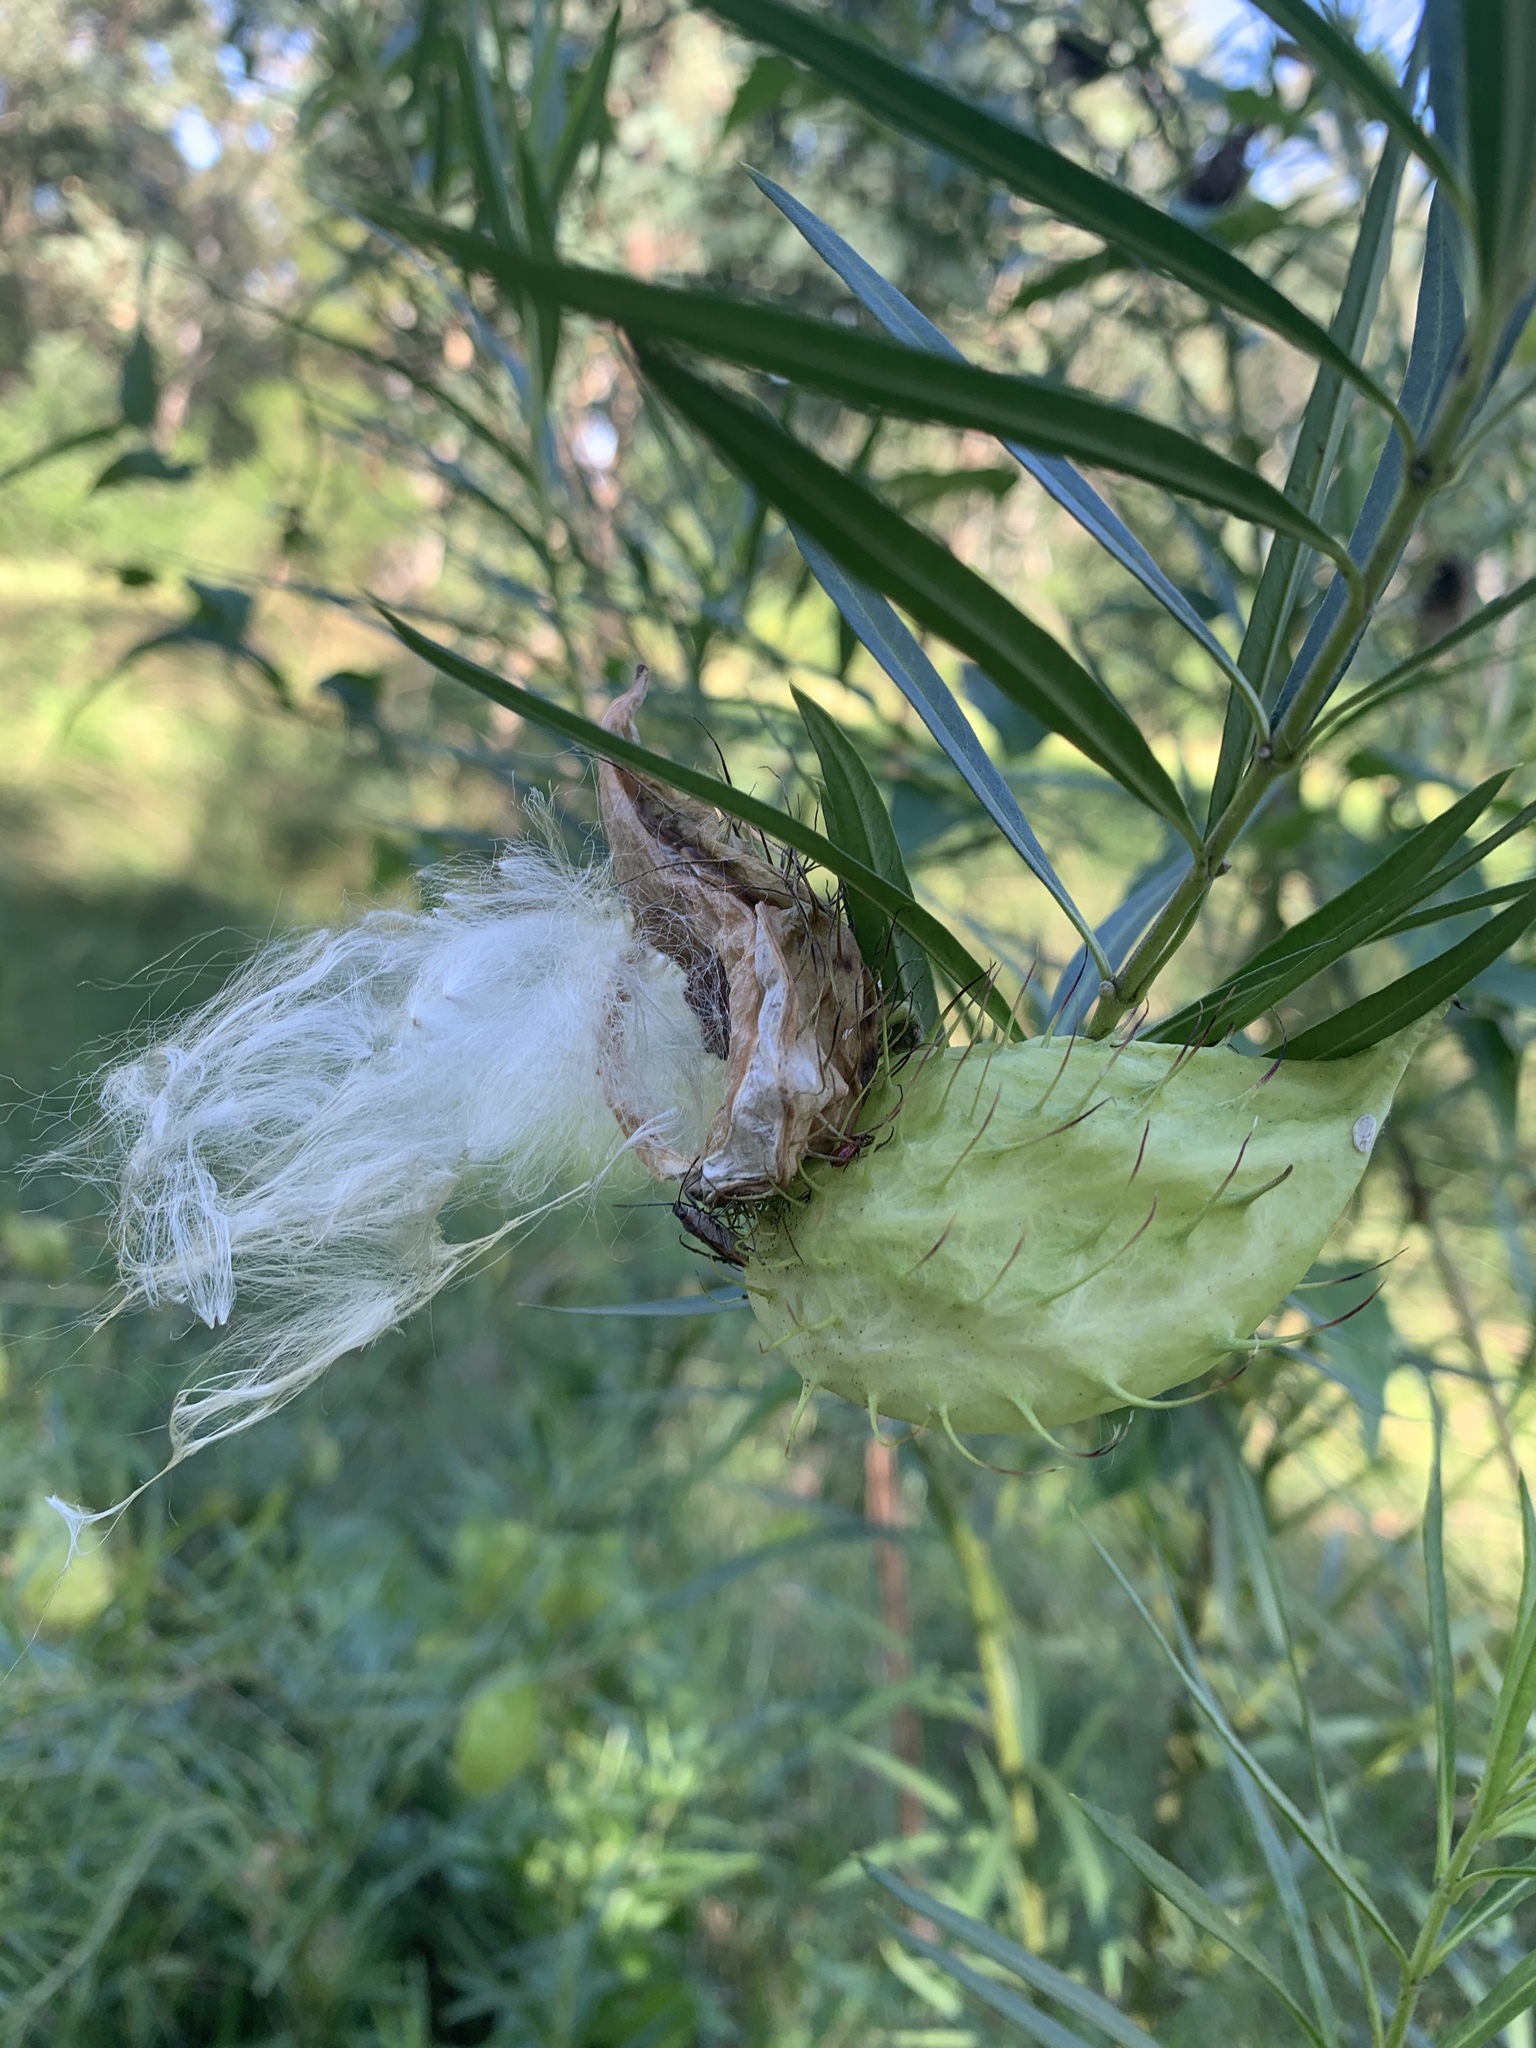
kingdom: Plantae
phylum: Tracheophyta
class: Magnoliopsida
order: Gentianales
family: Apocynaceae
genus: Gomphocarpus
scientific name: Gomphocarpus fruticosus
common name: Milkweed
